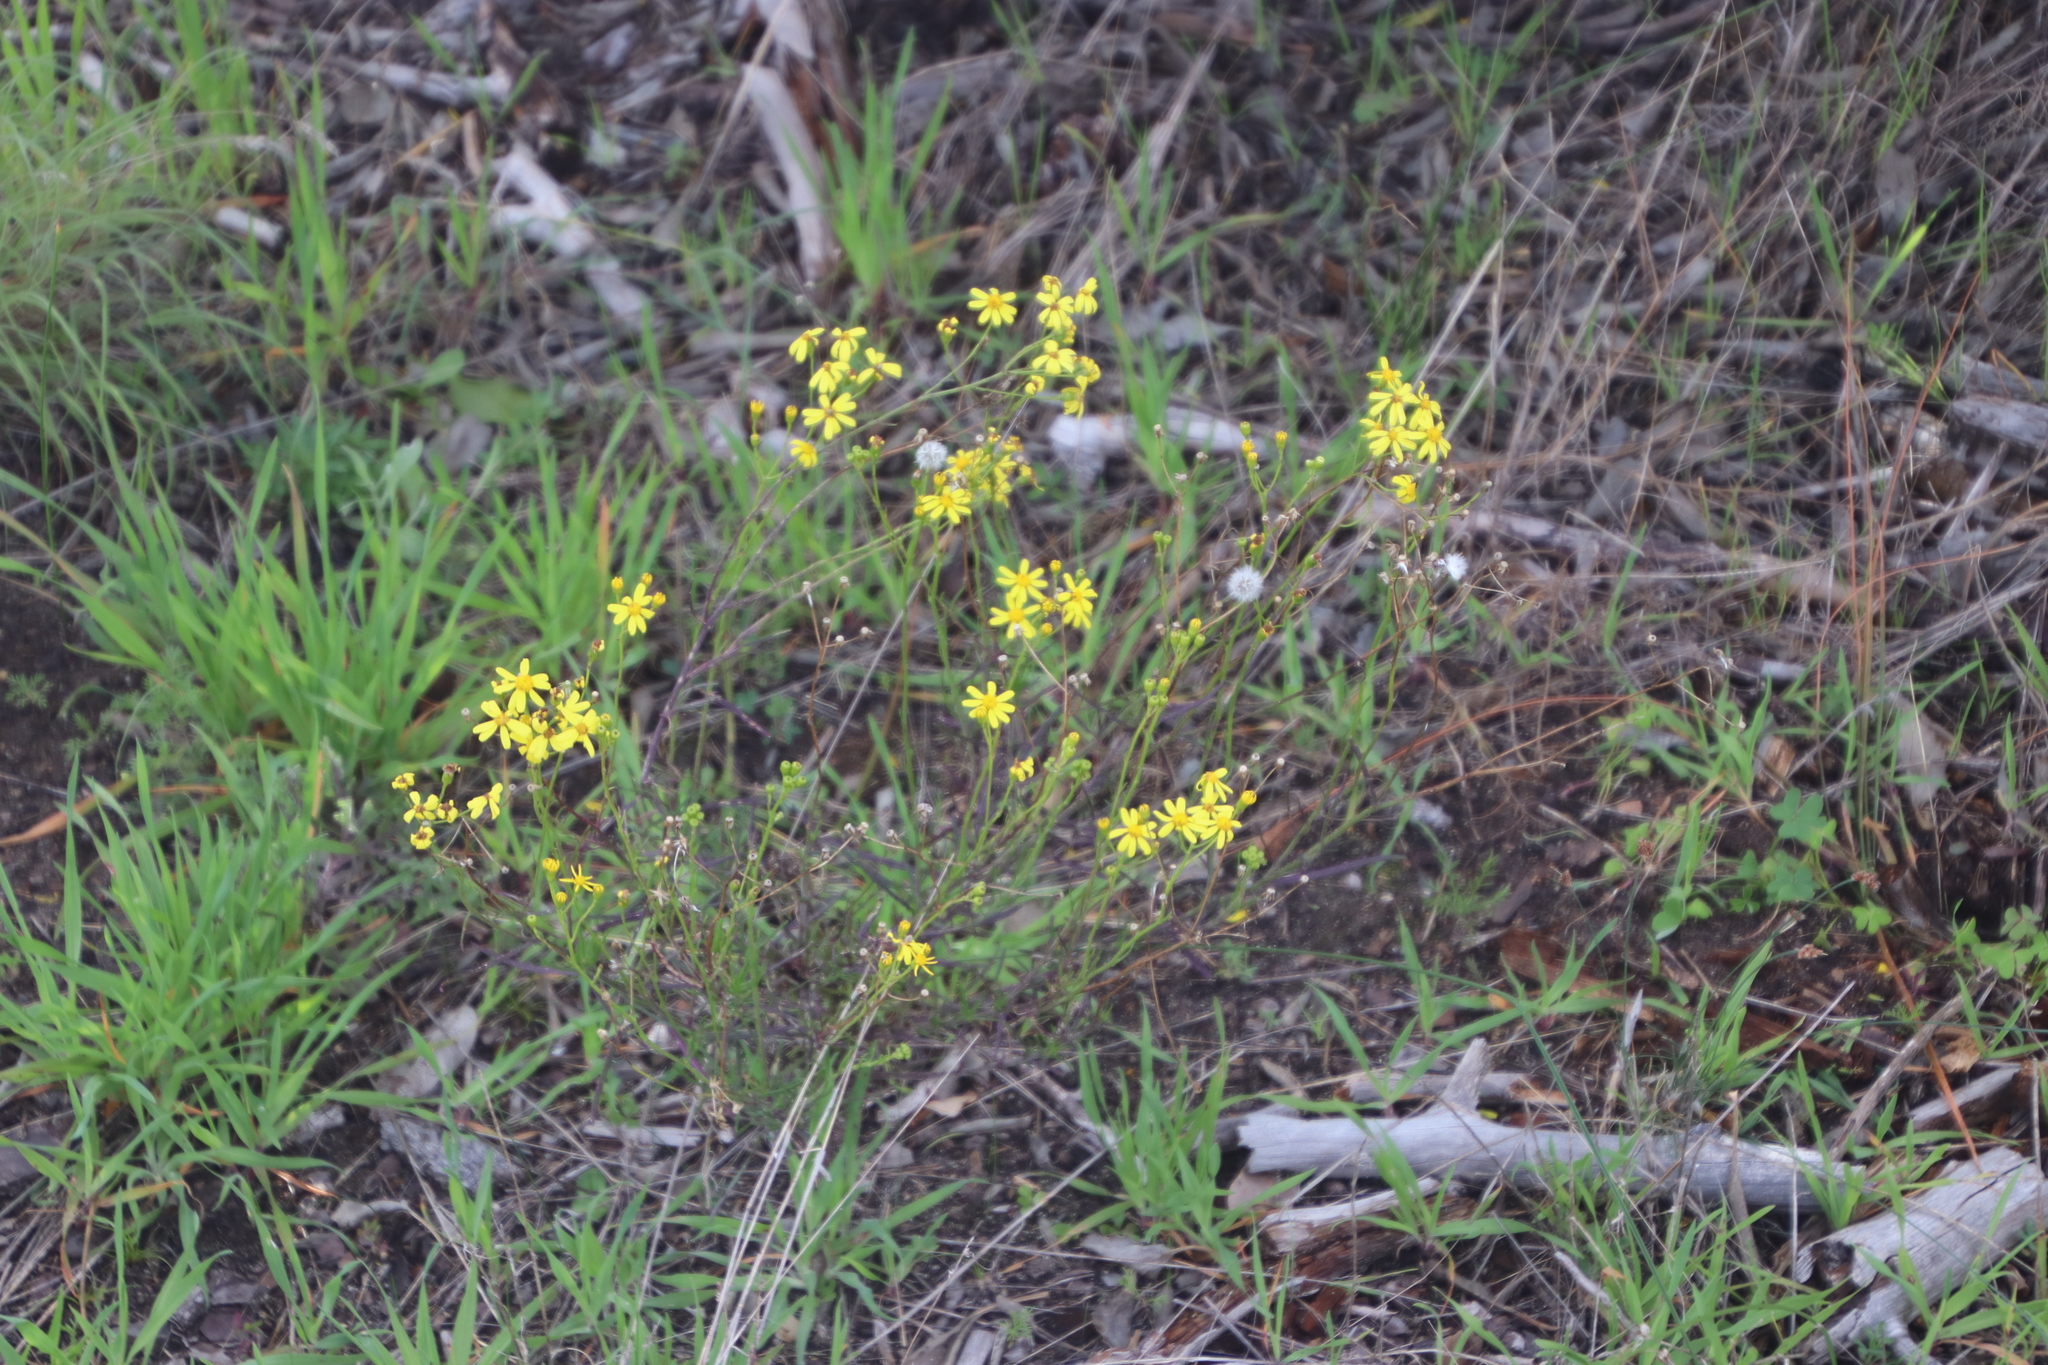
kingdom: Plantae
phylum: Tracheophyta
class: Magnoliopsida
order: Asterales
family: Asteraceae
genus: Senecio
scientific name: Senecio burchellii
